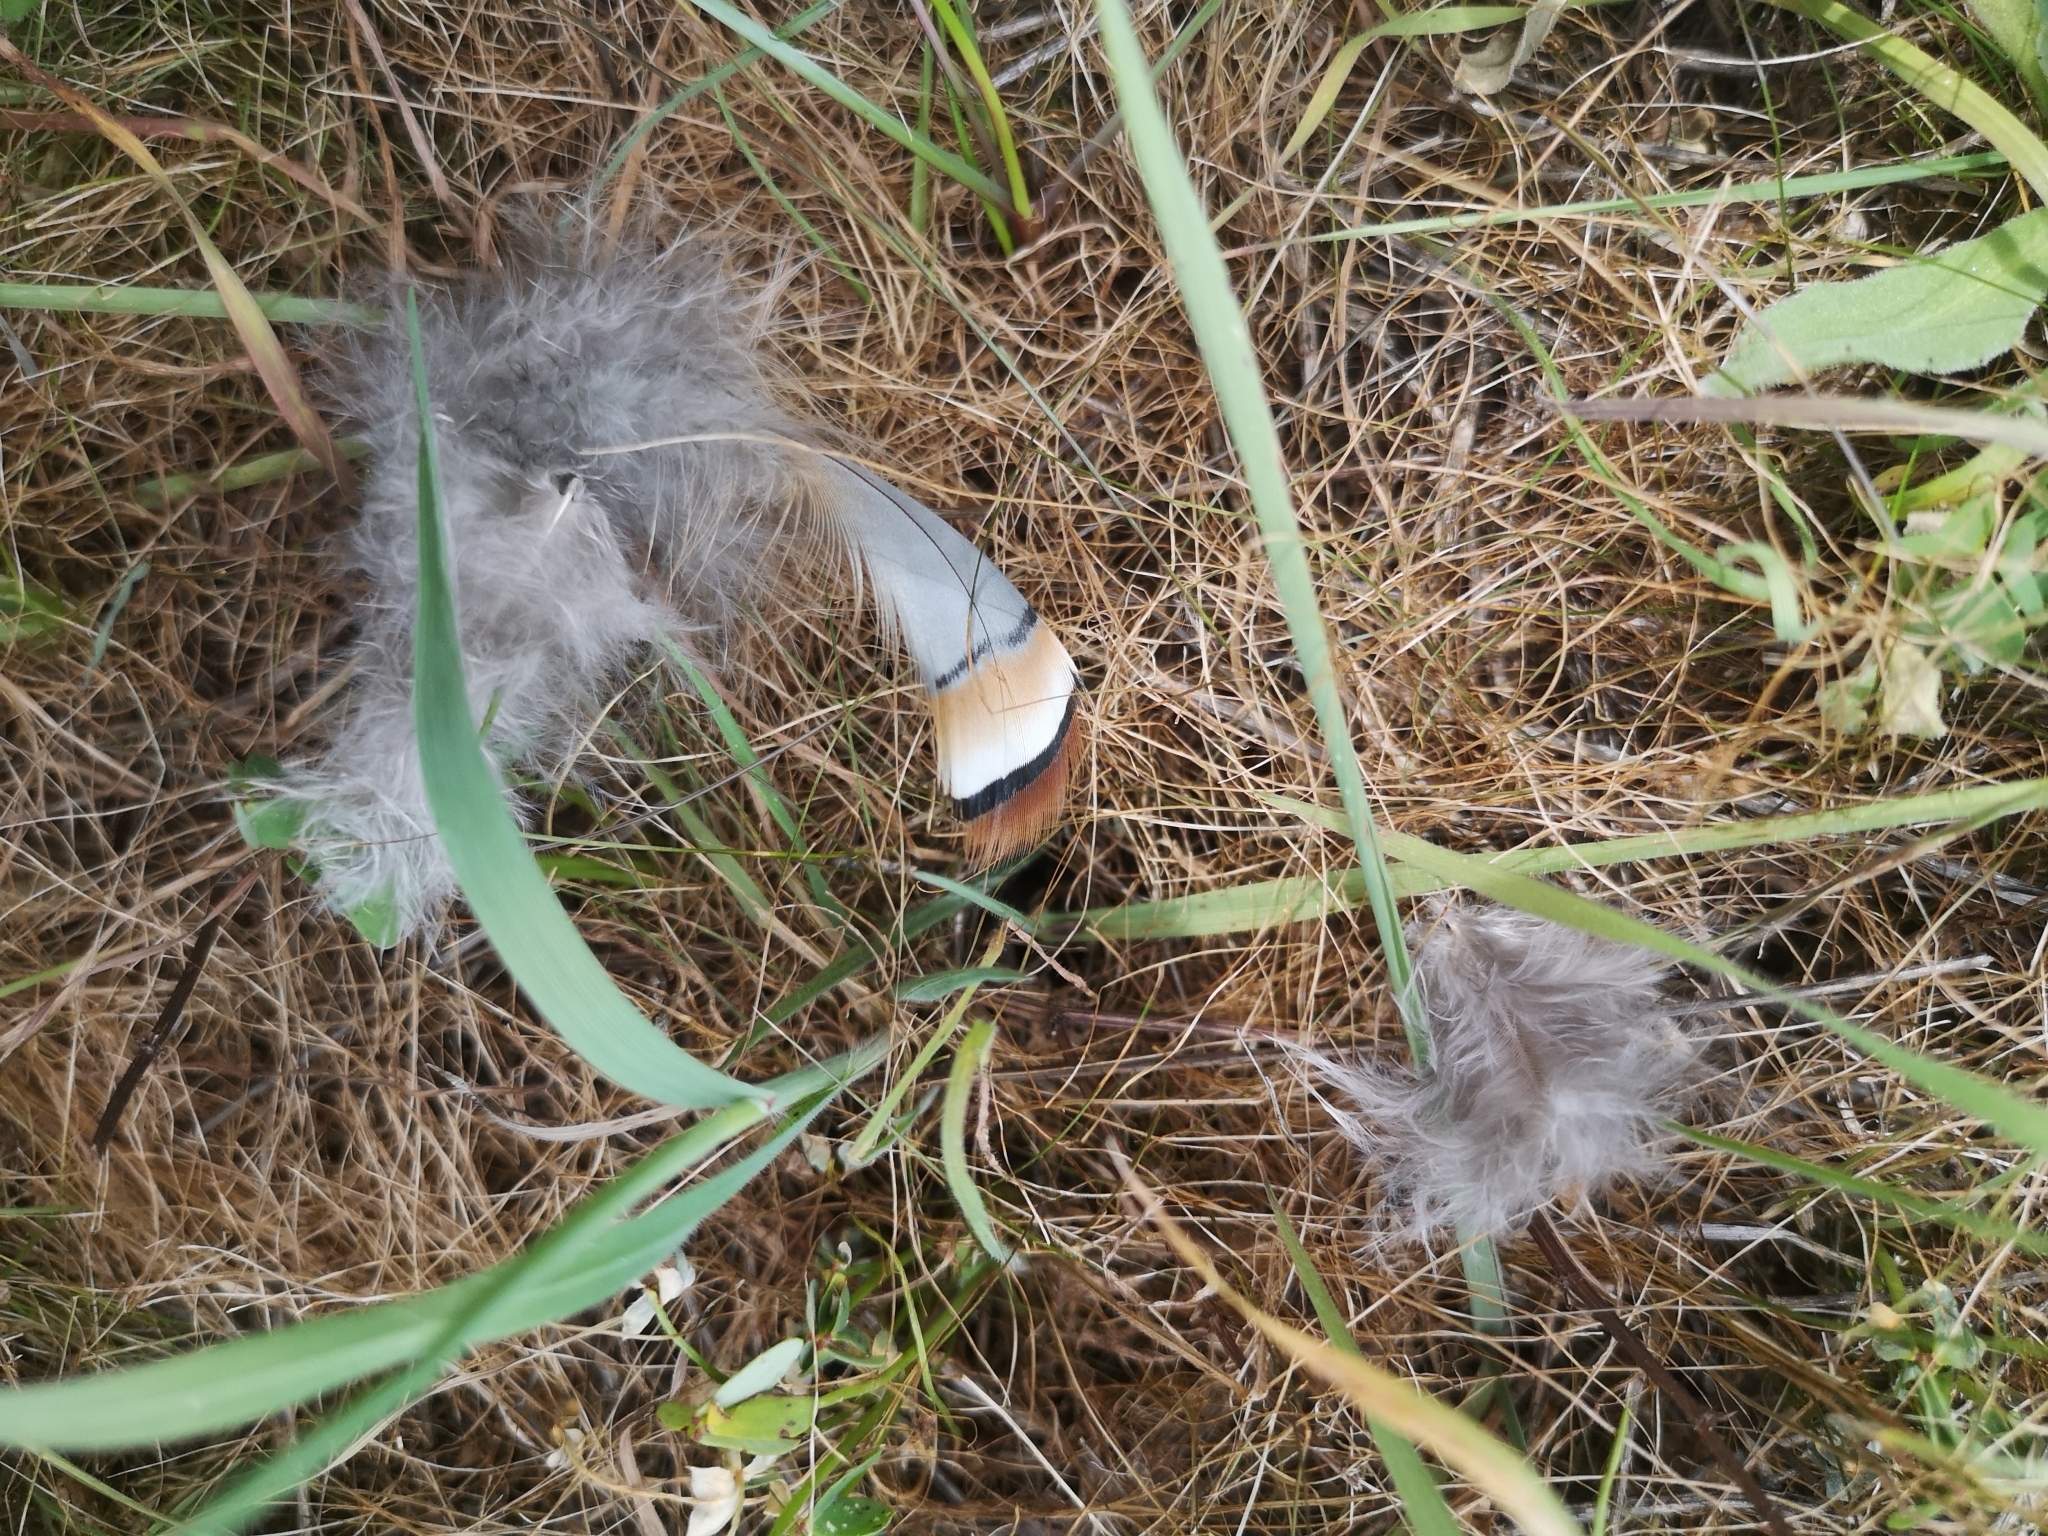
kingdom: Animalia
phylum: Chordata
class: Aves
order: Galliformes
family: Phasianidae
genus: Alectoris
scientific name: Alectoris barbara
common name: Barbary partridge
